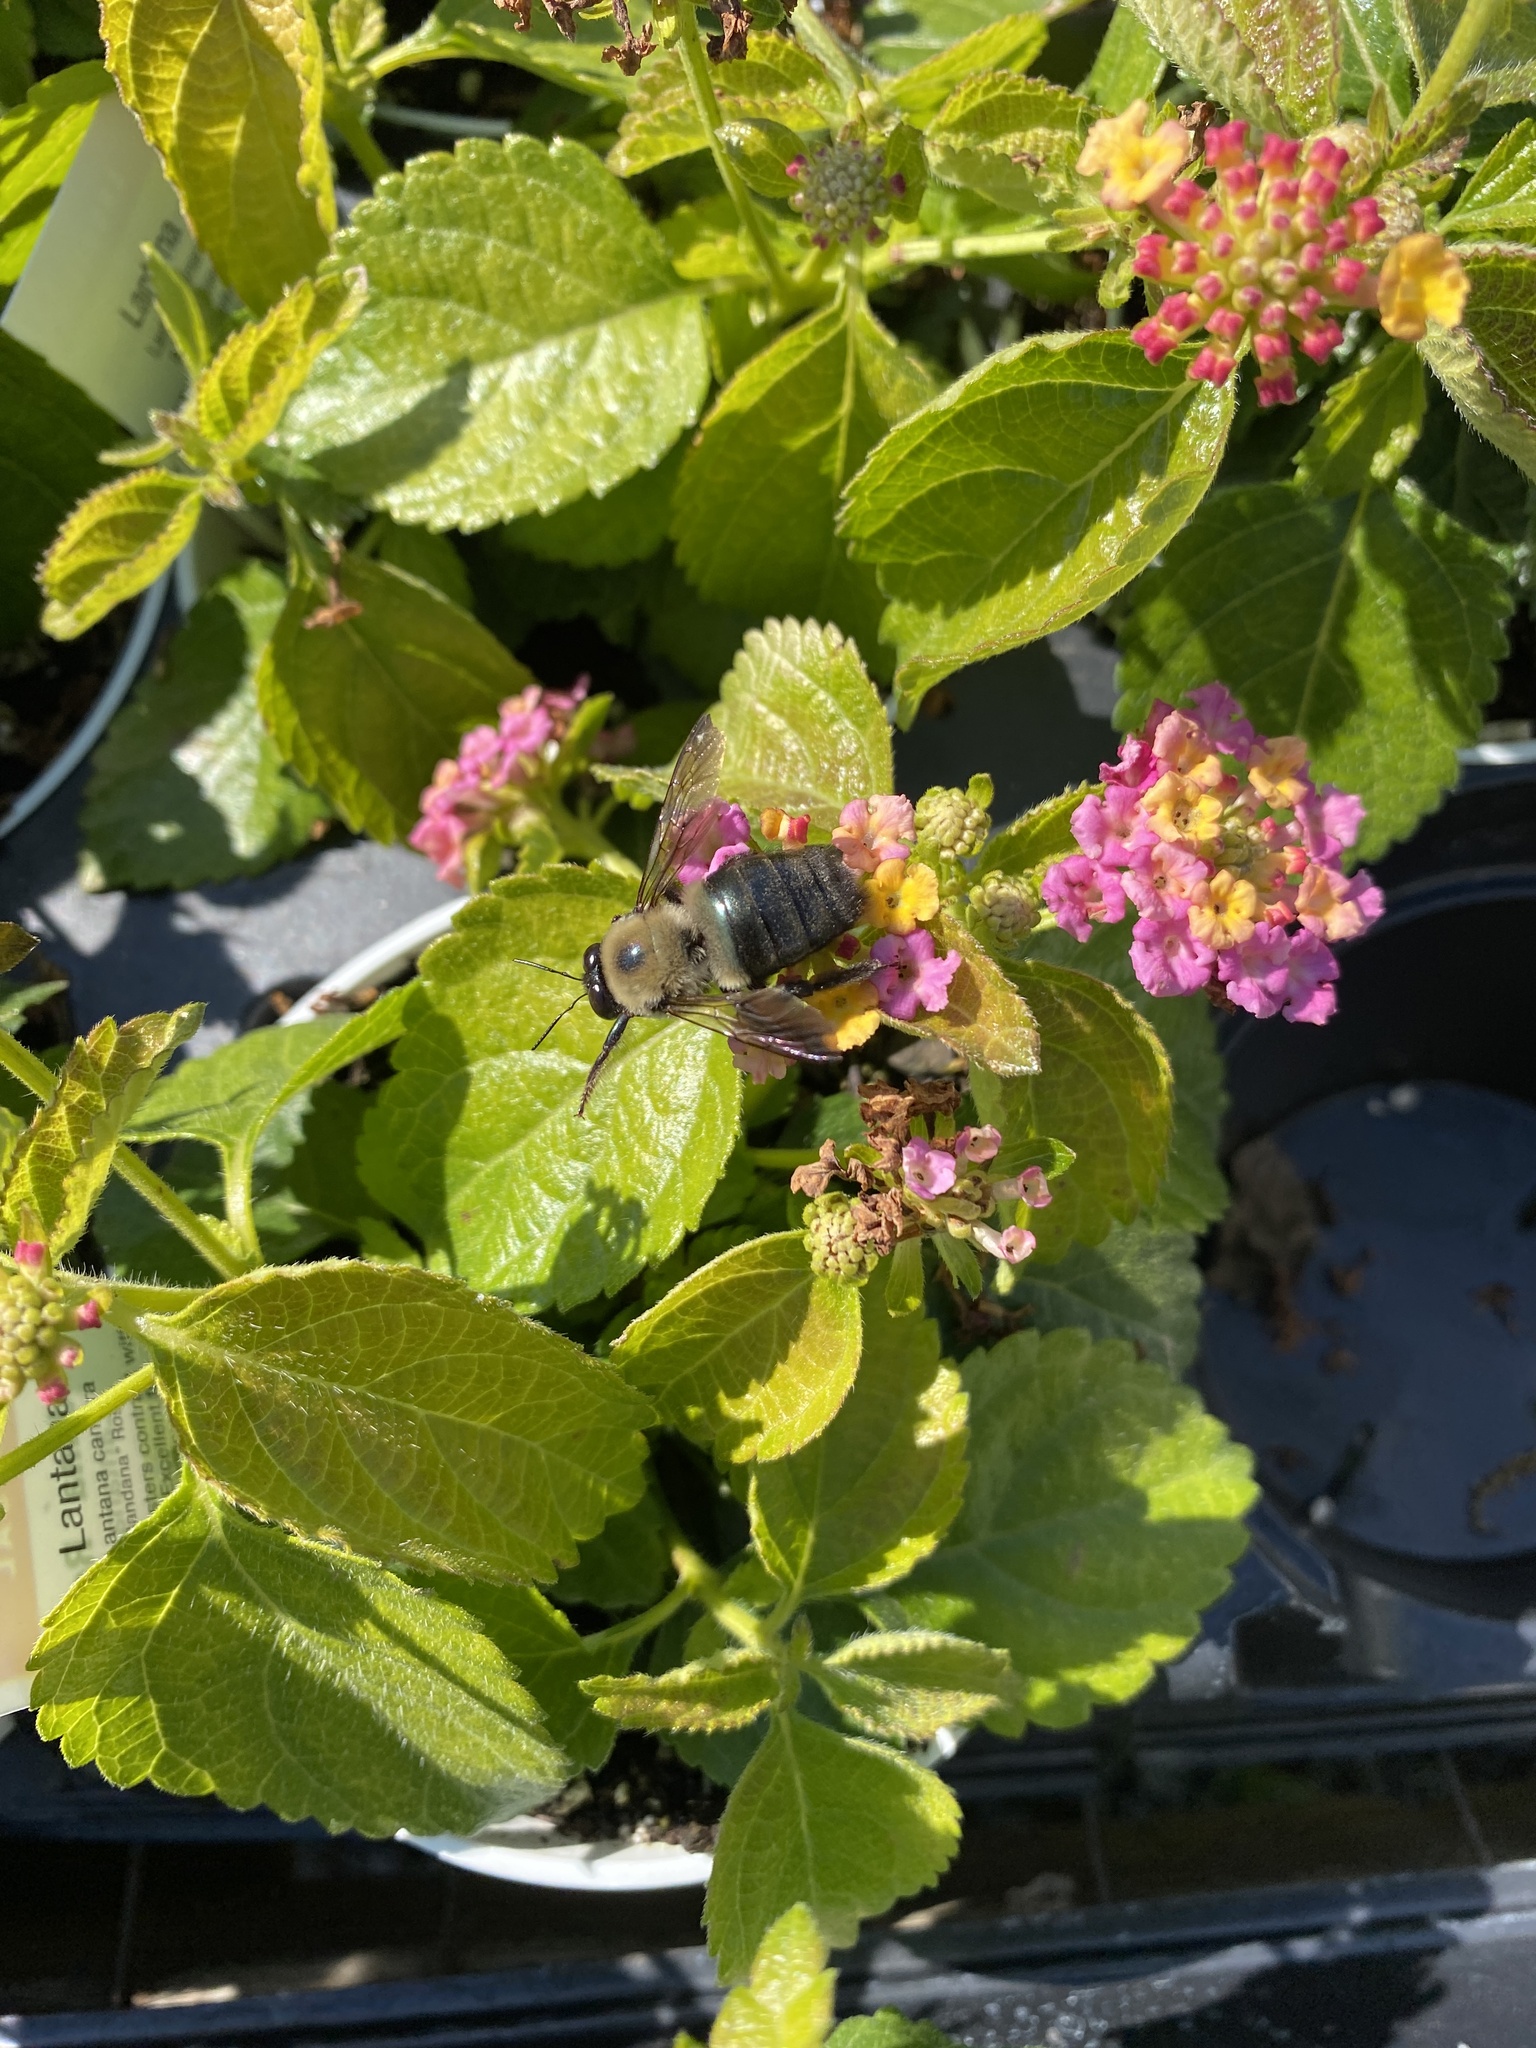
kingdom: Animalia
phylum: Arthropoda
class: Insecta
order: Hymenoptera
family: Apidae
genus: Xylocopa
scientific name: Xylocopa virginica
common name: Carpenter bee
